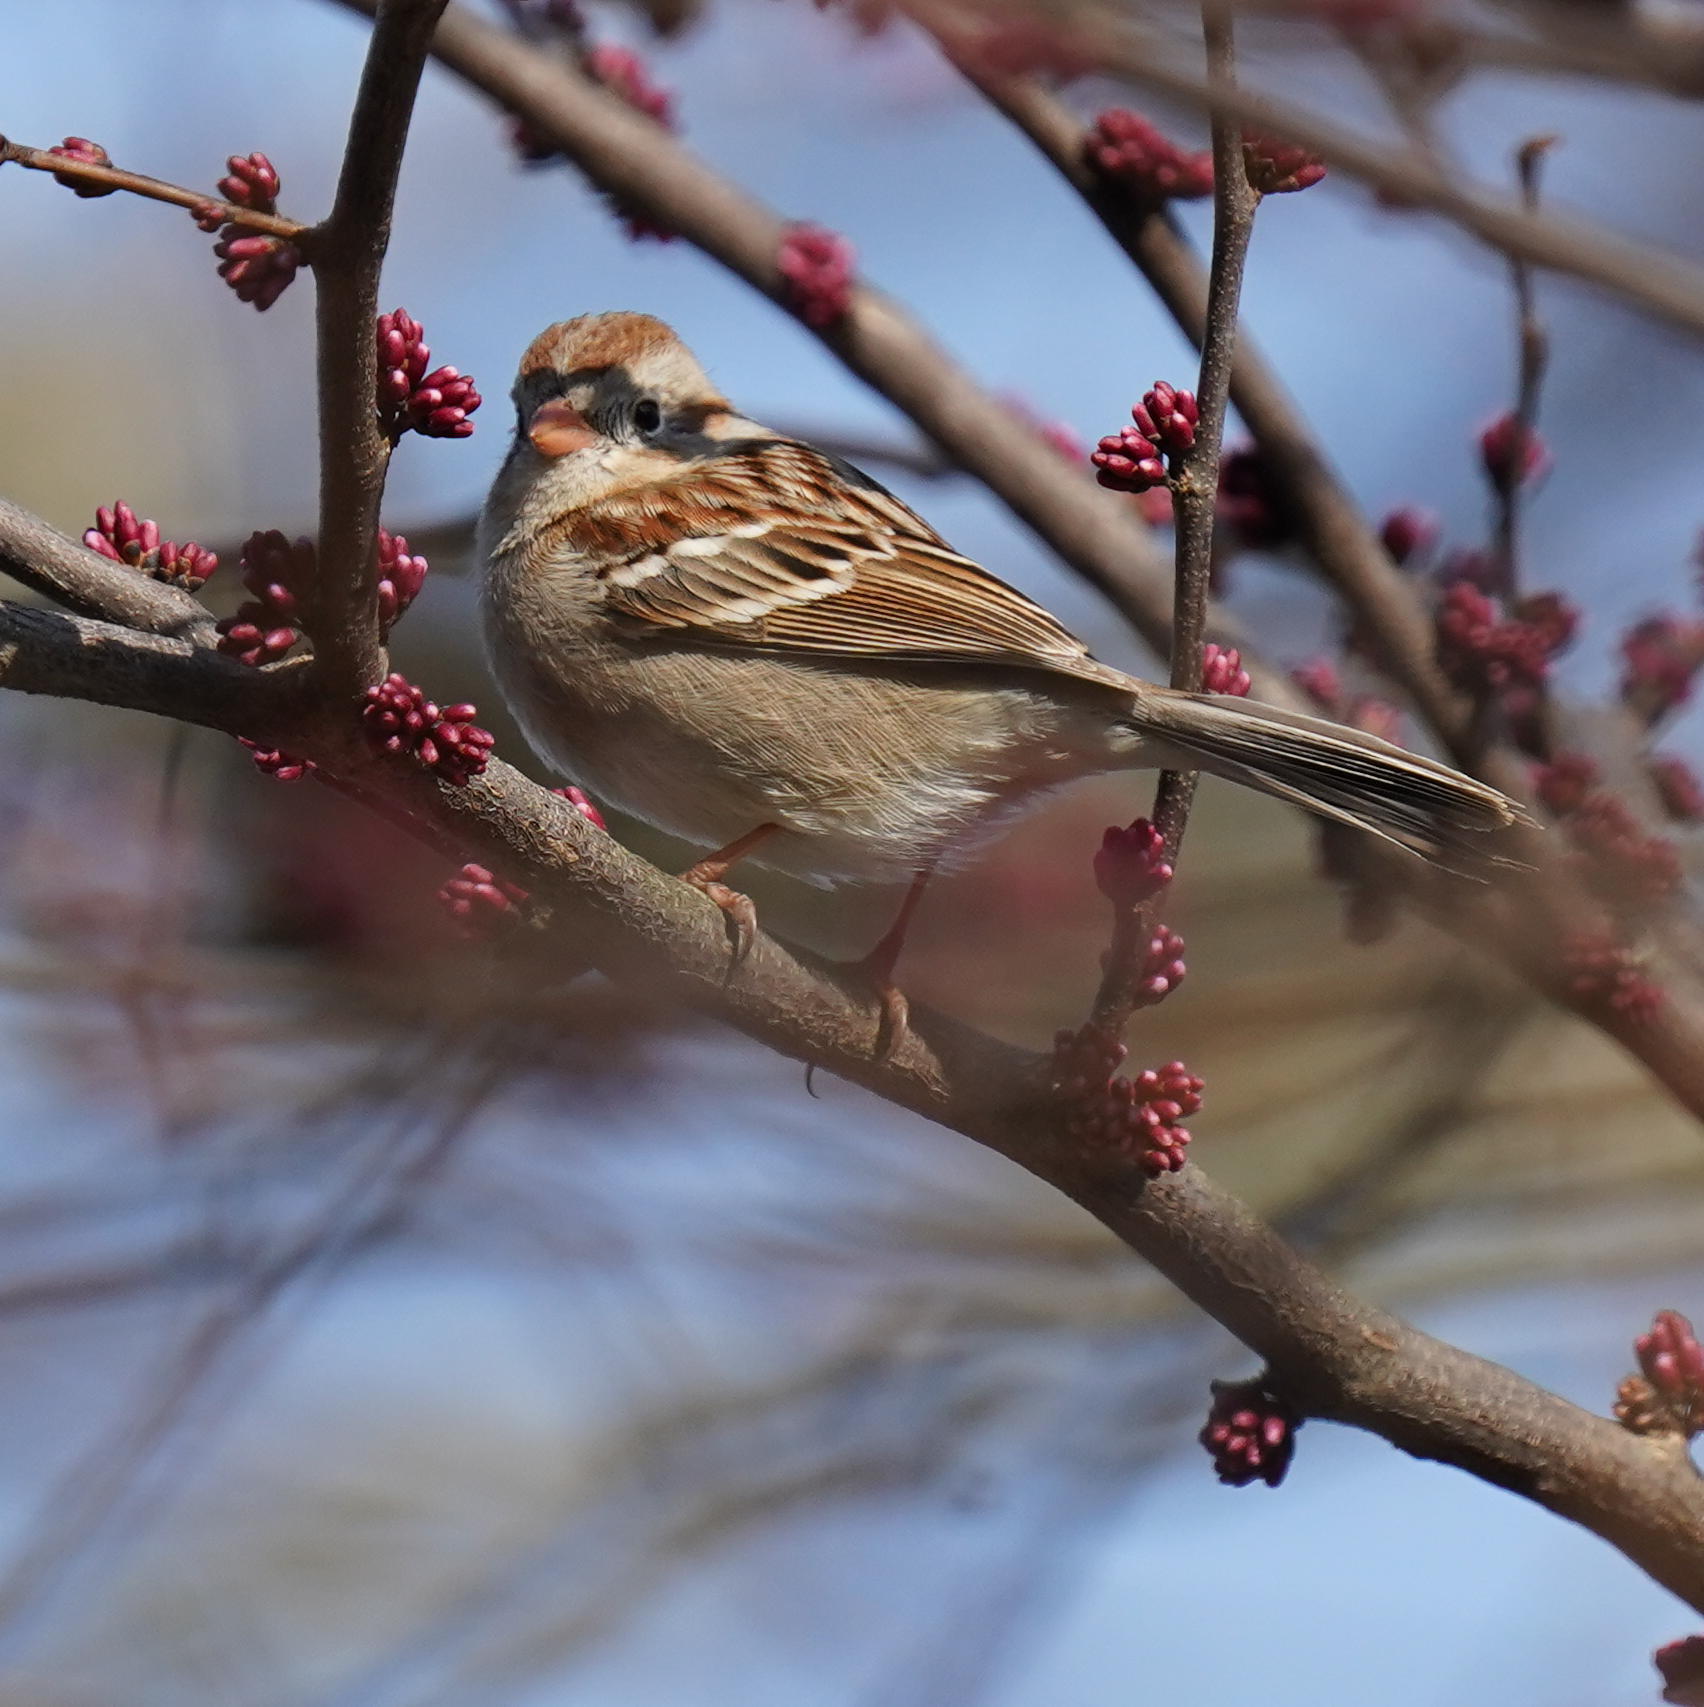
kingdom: Animalia
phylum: Chordata
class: Aves
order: Passeriformes
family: Passerellidae
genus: Spizella
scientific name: Spizella pusilla
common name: Field sparrow
